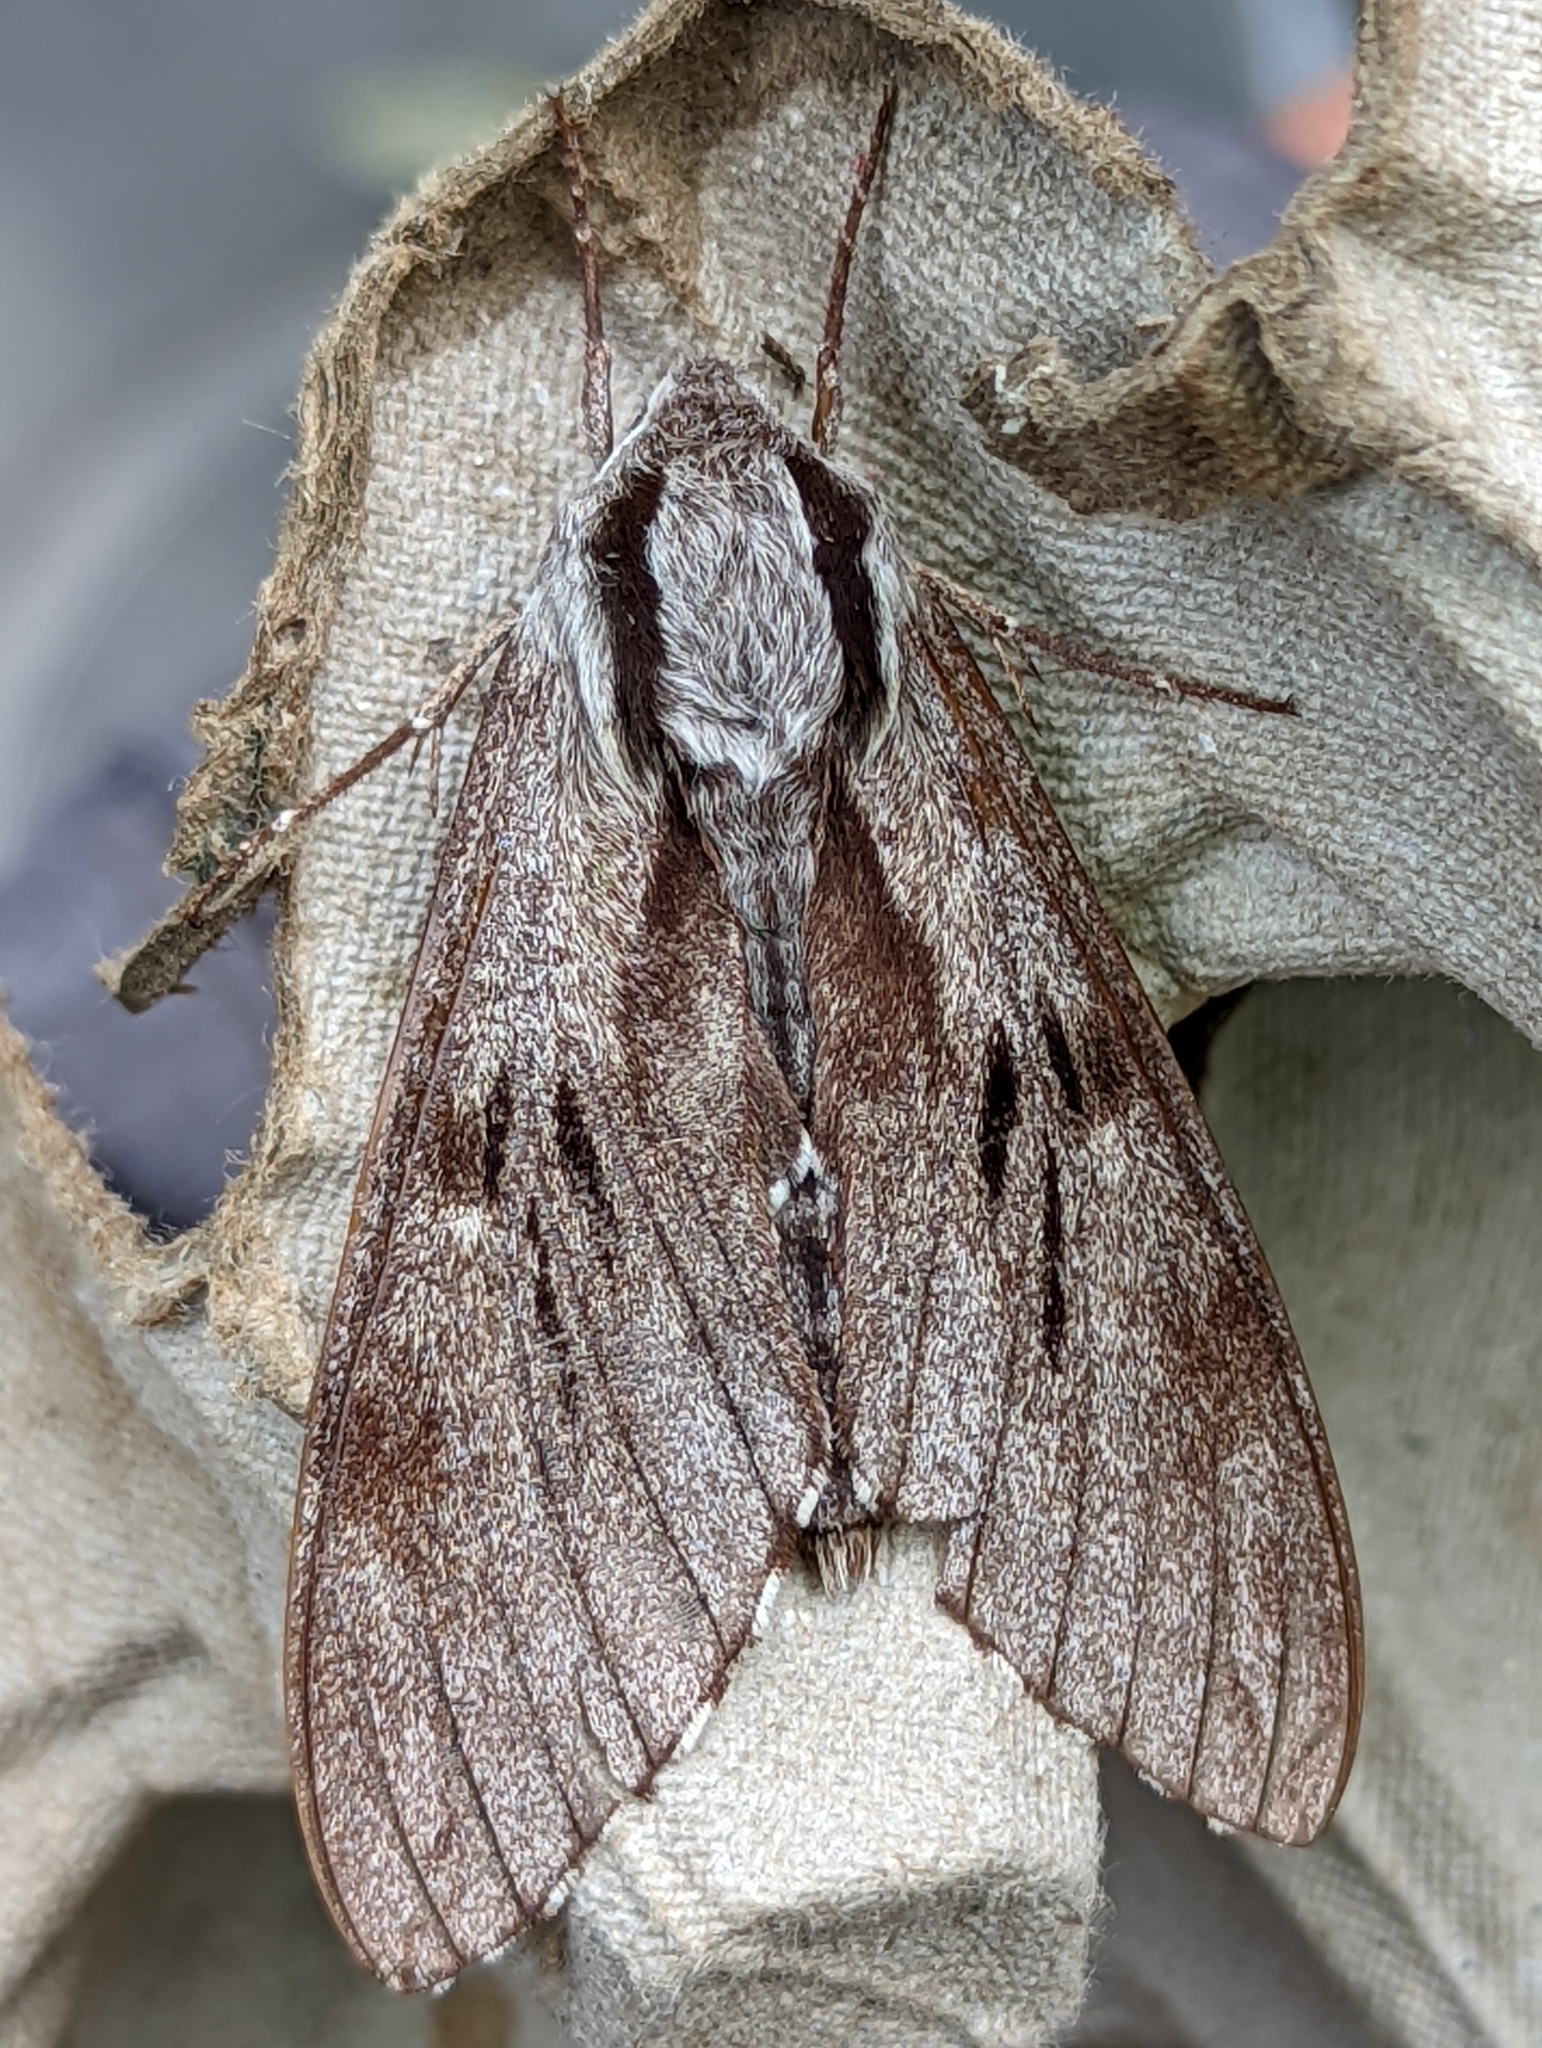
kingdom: Animalia
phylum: Arthropoda
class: Insecta
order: Lepidoptera
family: Sphingidae
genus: Sphinx
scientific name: Sphinx pinastri
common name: Pine hawk-moth
